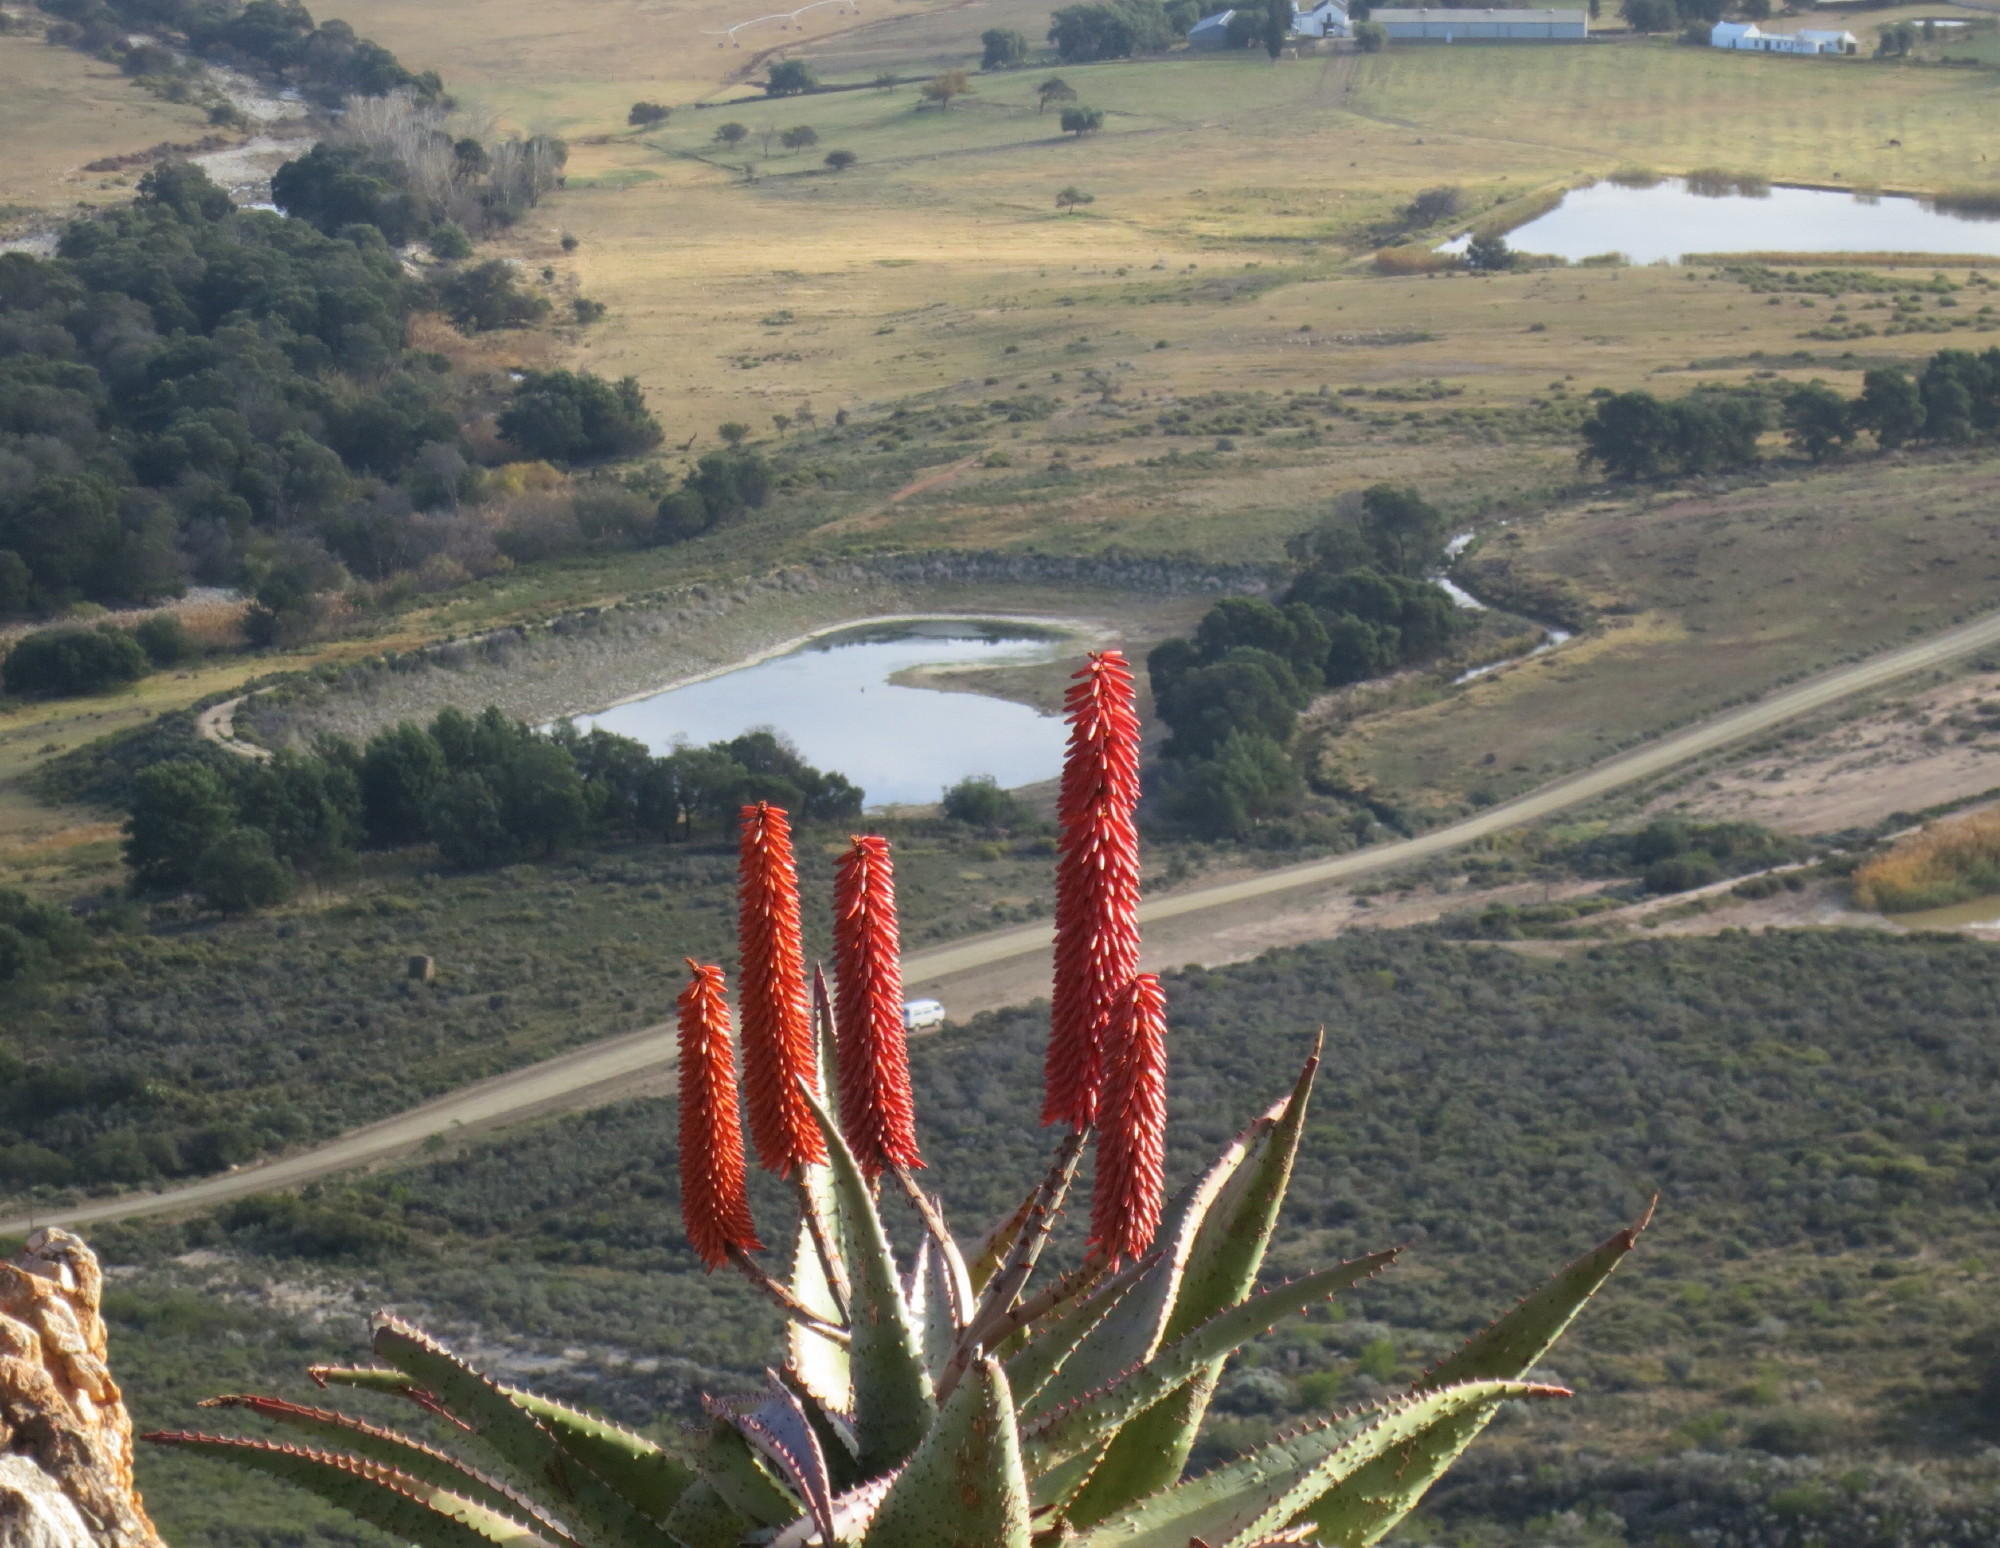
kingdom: Plantae
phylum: Tracheophyta
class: Liliopsida
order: Asparagales
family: Asphodelaceae
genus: Aloe
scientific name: Aloe ferox
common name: Bitter aloe
